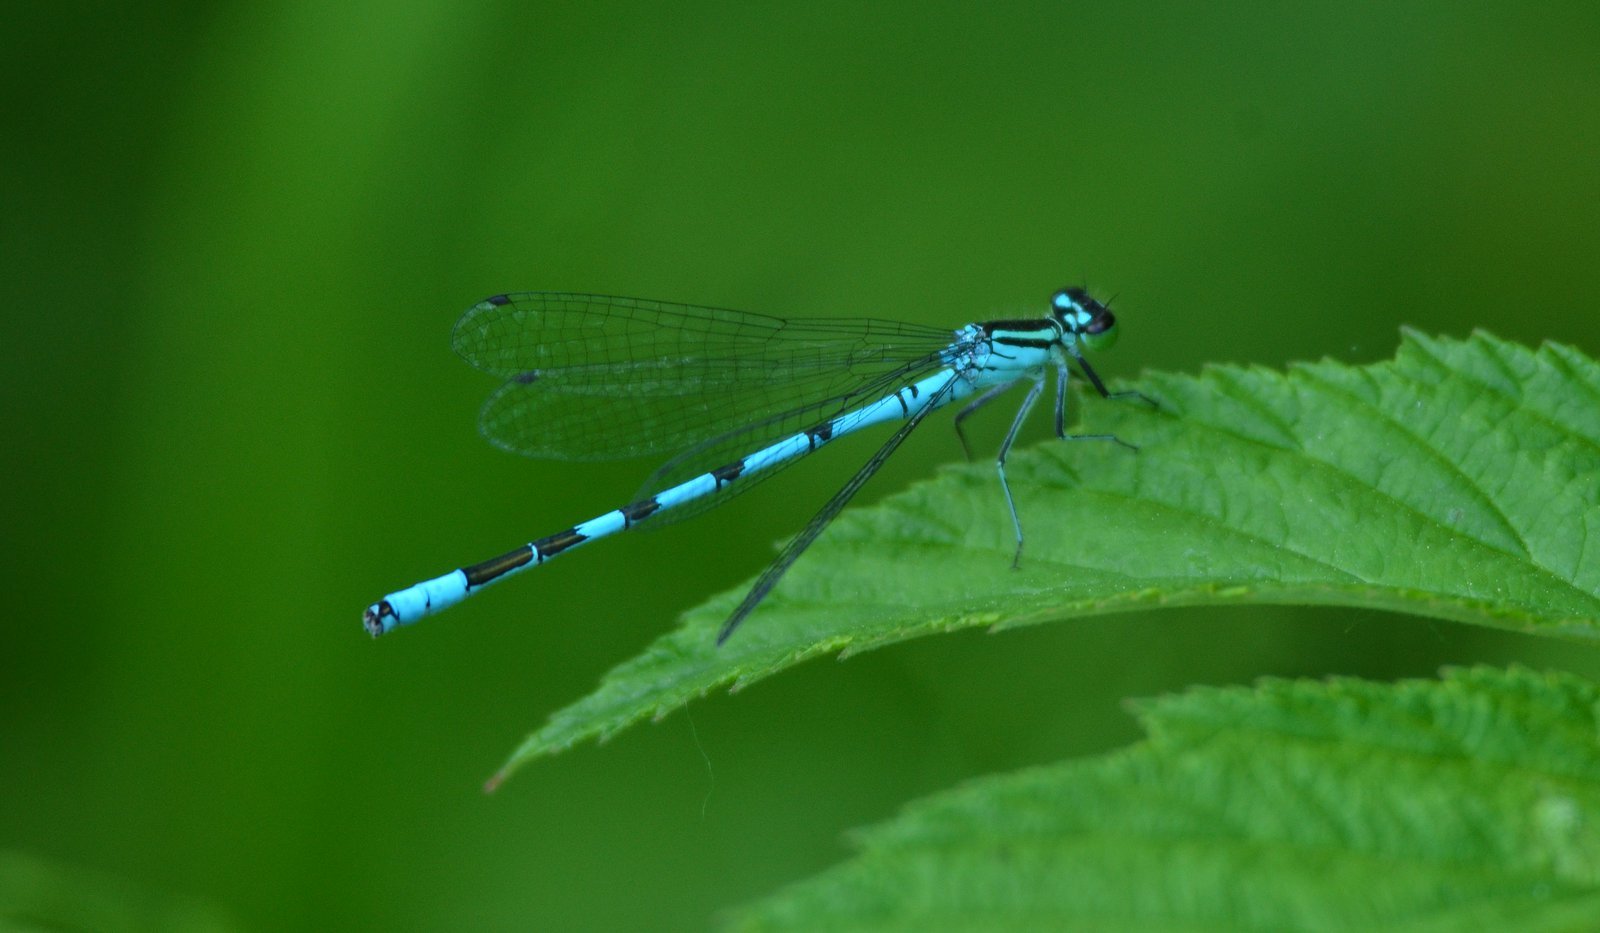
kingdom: Animalia
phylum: Arthropoda
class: Insecta
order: Odonata
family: Coenagrionidae
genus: Coenagrion
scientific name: Coenagrion hastulatum
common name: Spearhead bluet
